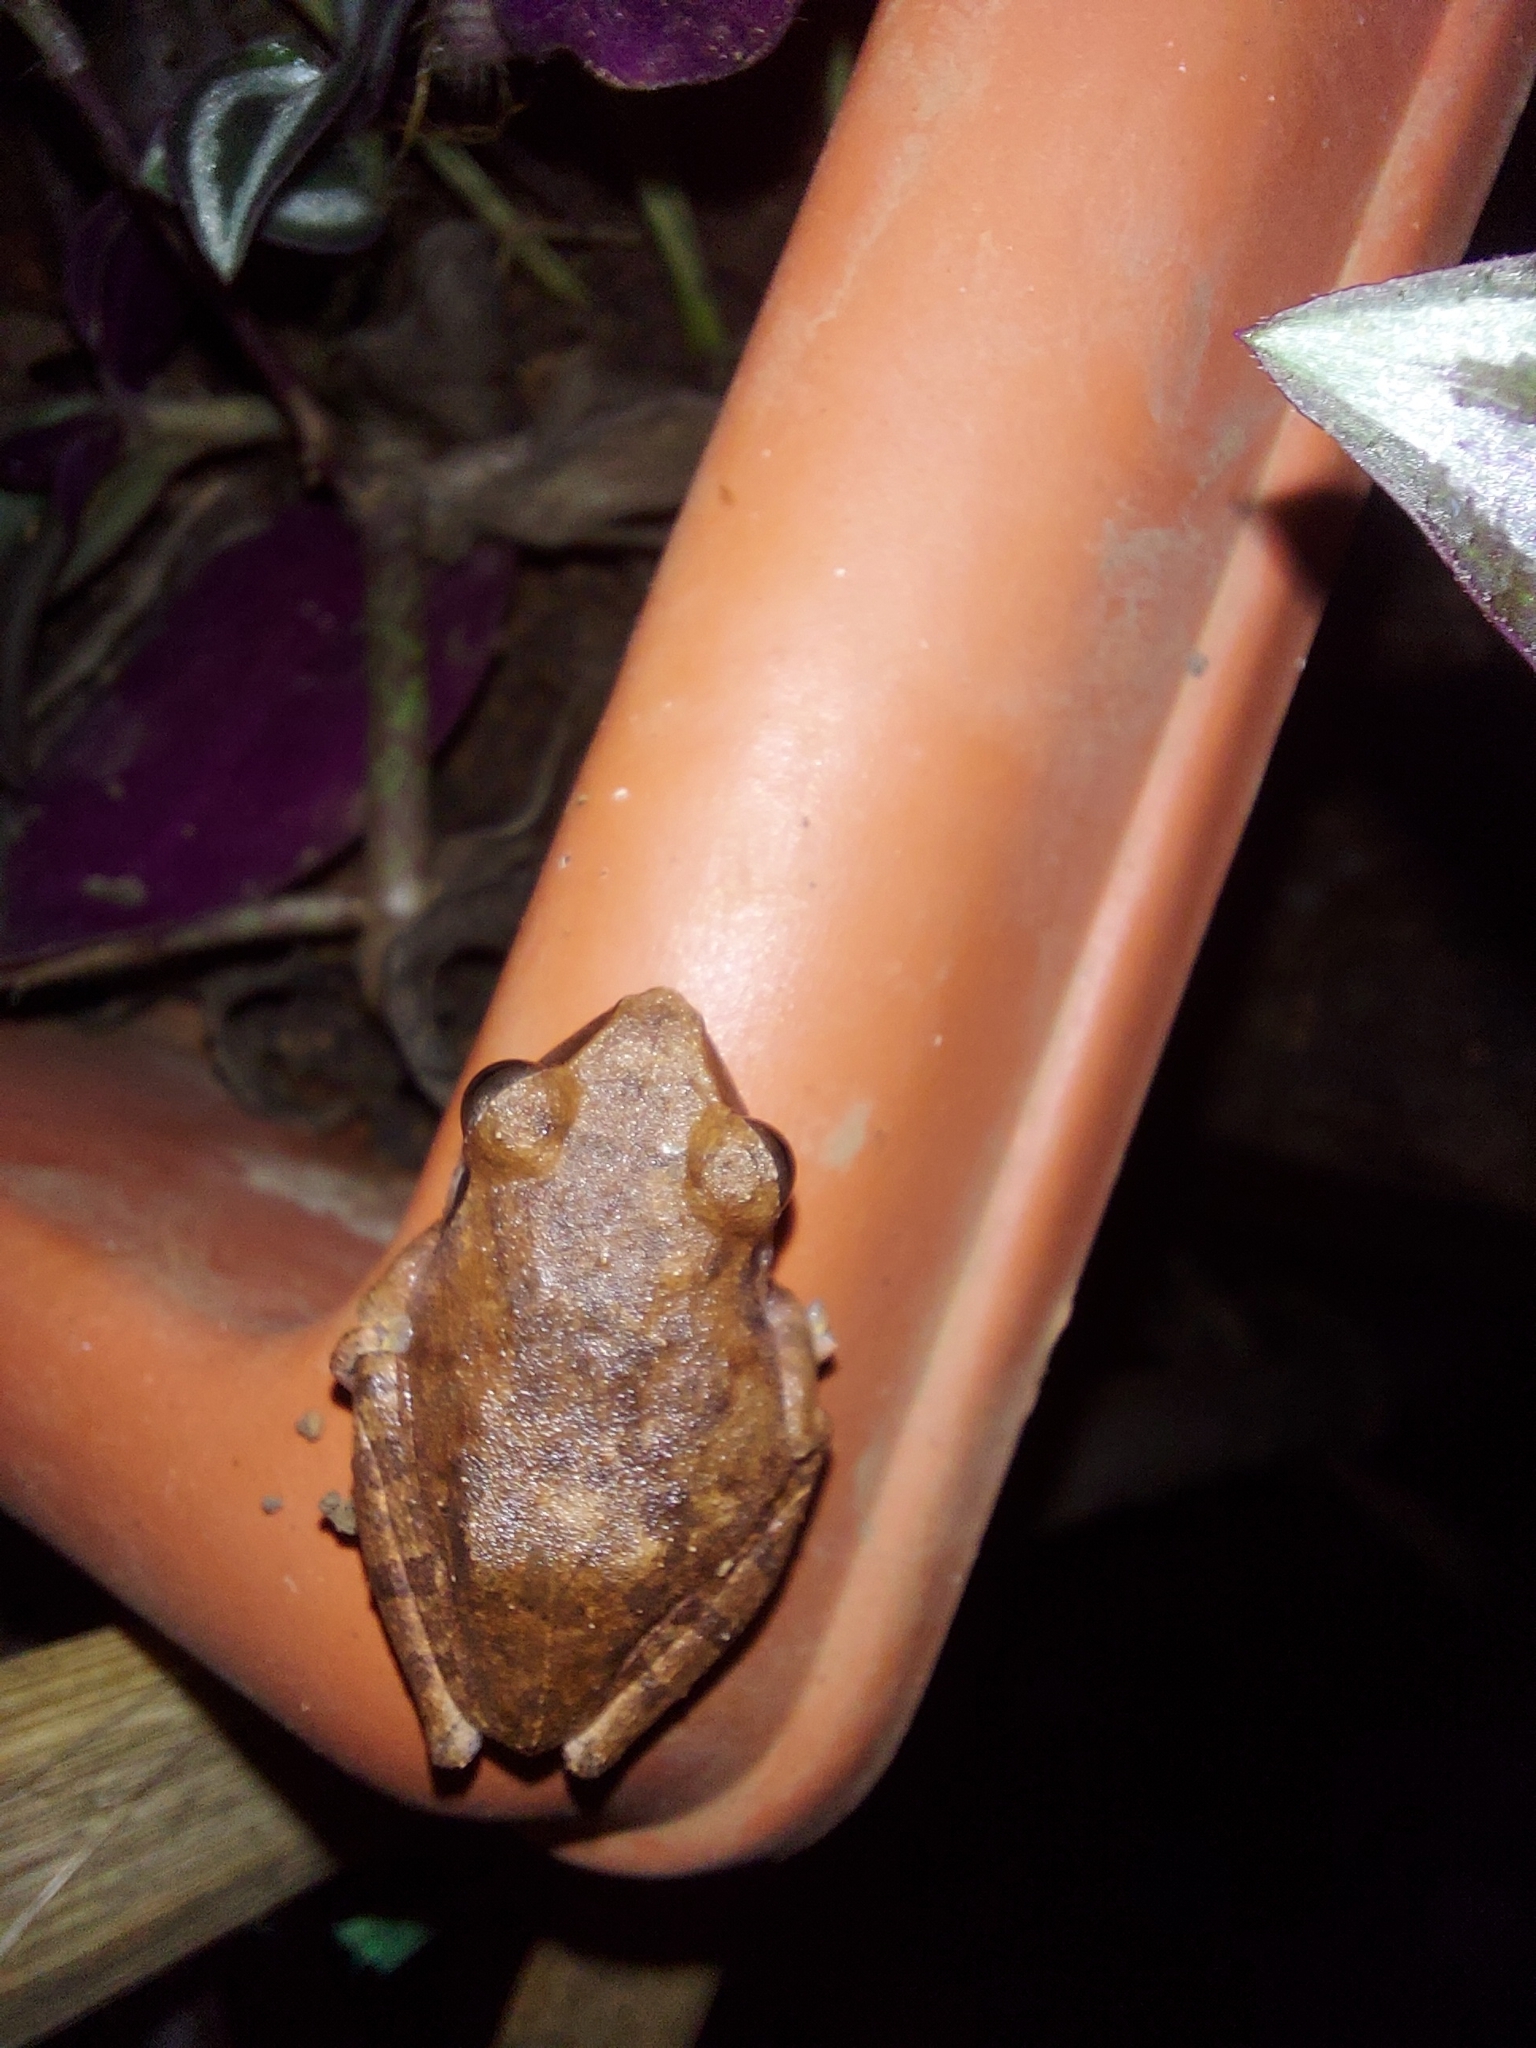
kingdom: Animalia
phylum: Chordata
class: Amphibia
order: Anura
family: Rhacophoridae
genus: Pseudophilautus
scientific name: Pseudophilautus amboli
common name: Amboli bush frog
